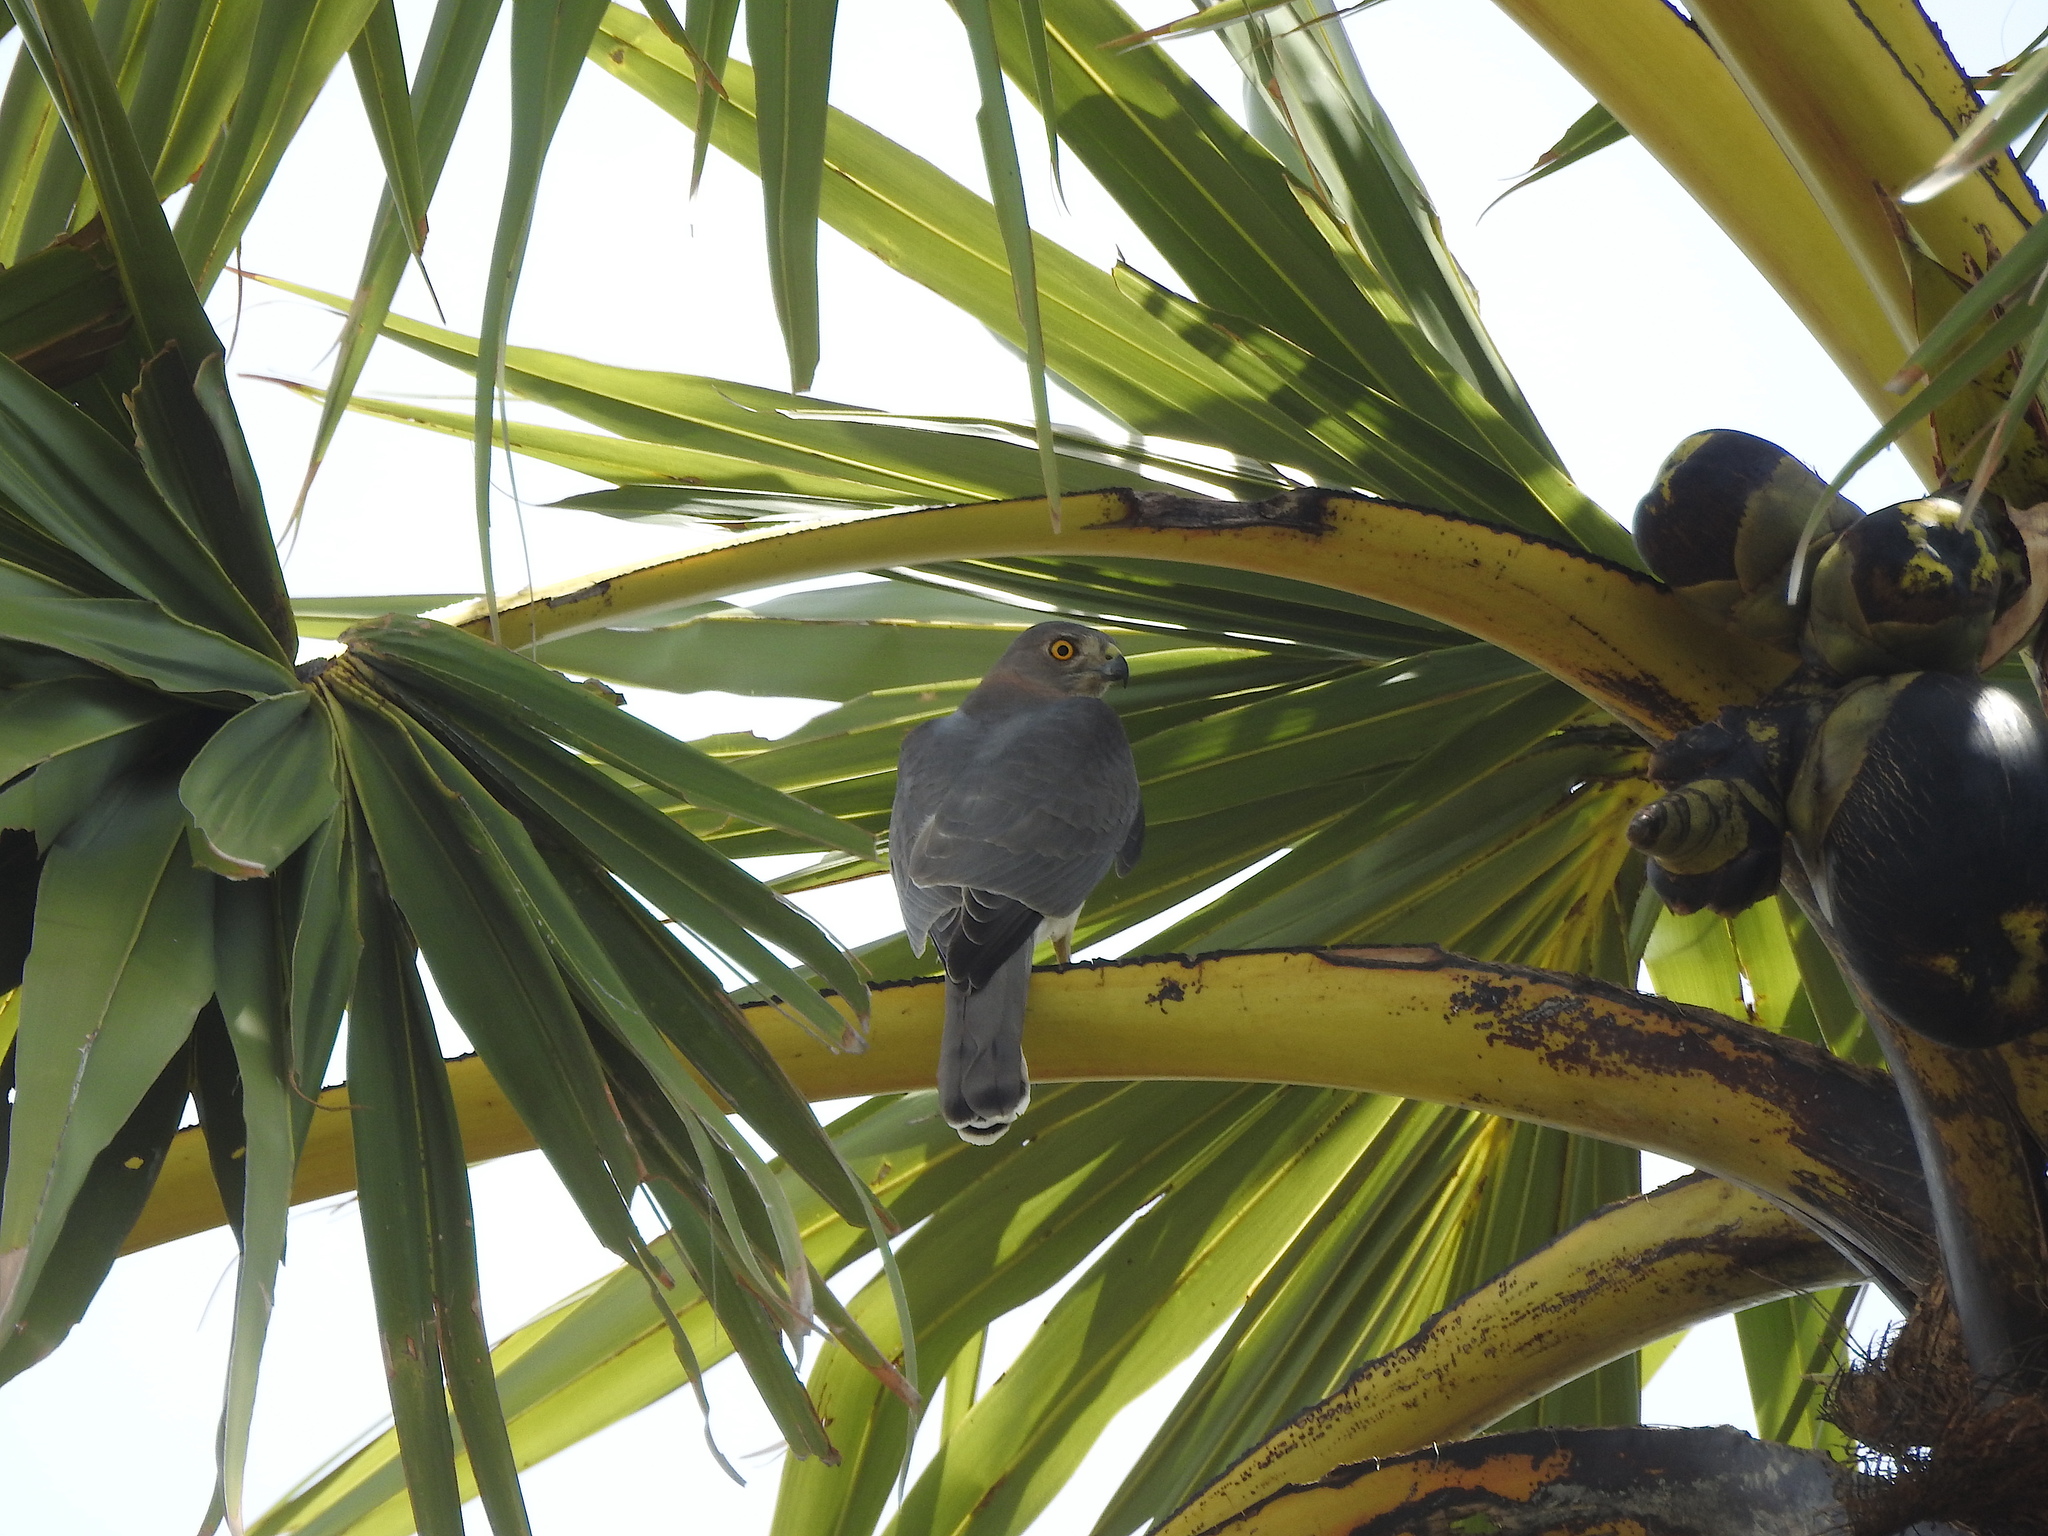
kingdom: Animalia
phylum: Chordata
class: Aves
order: Accipitriformes
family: Accipitridae
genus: Accipiter
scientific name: Accipiter badius
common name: Shikra
